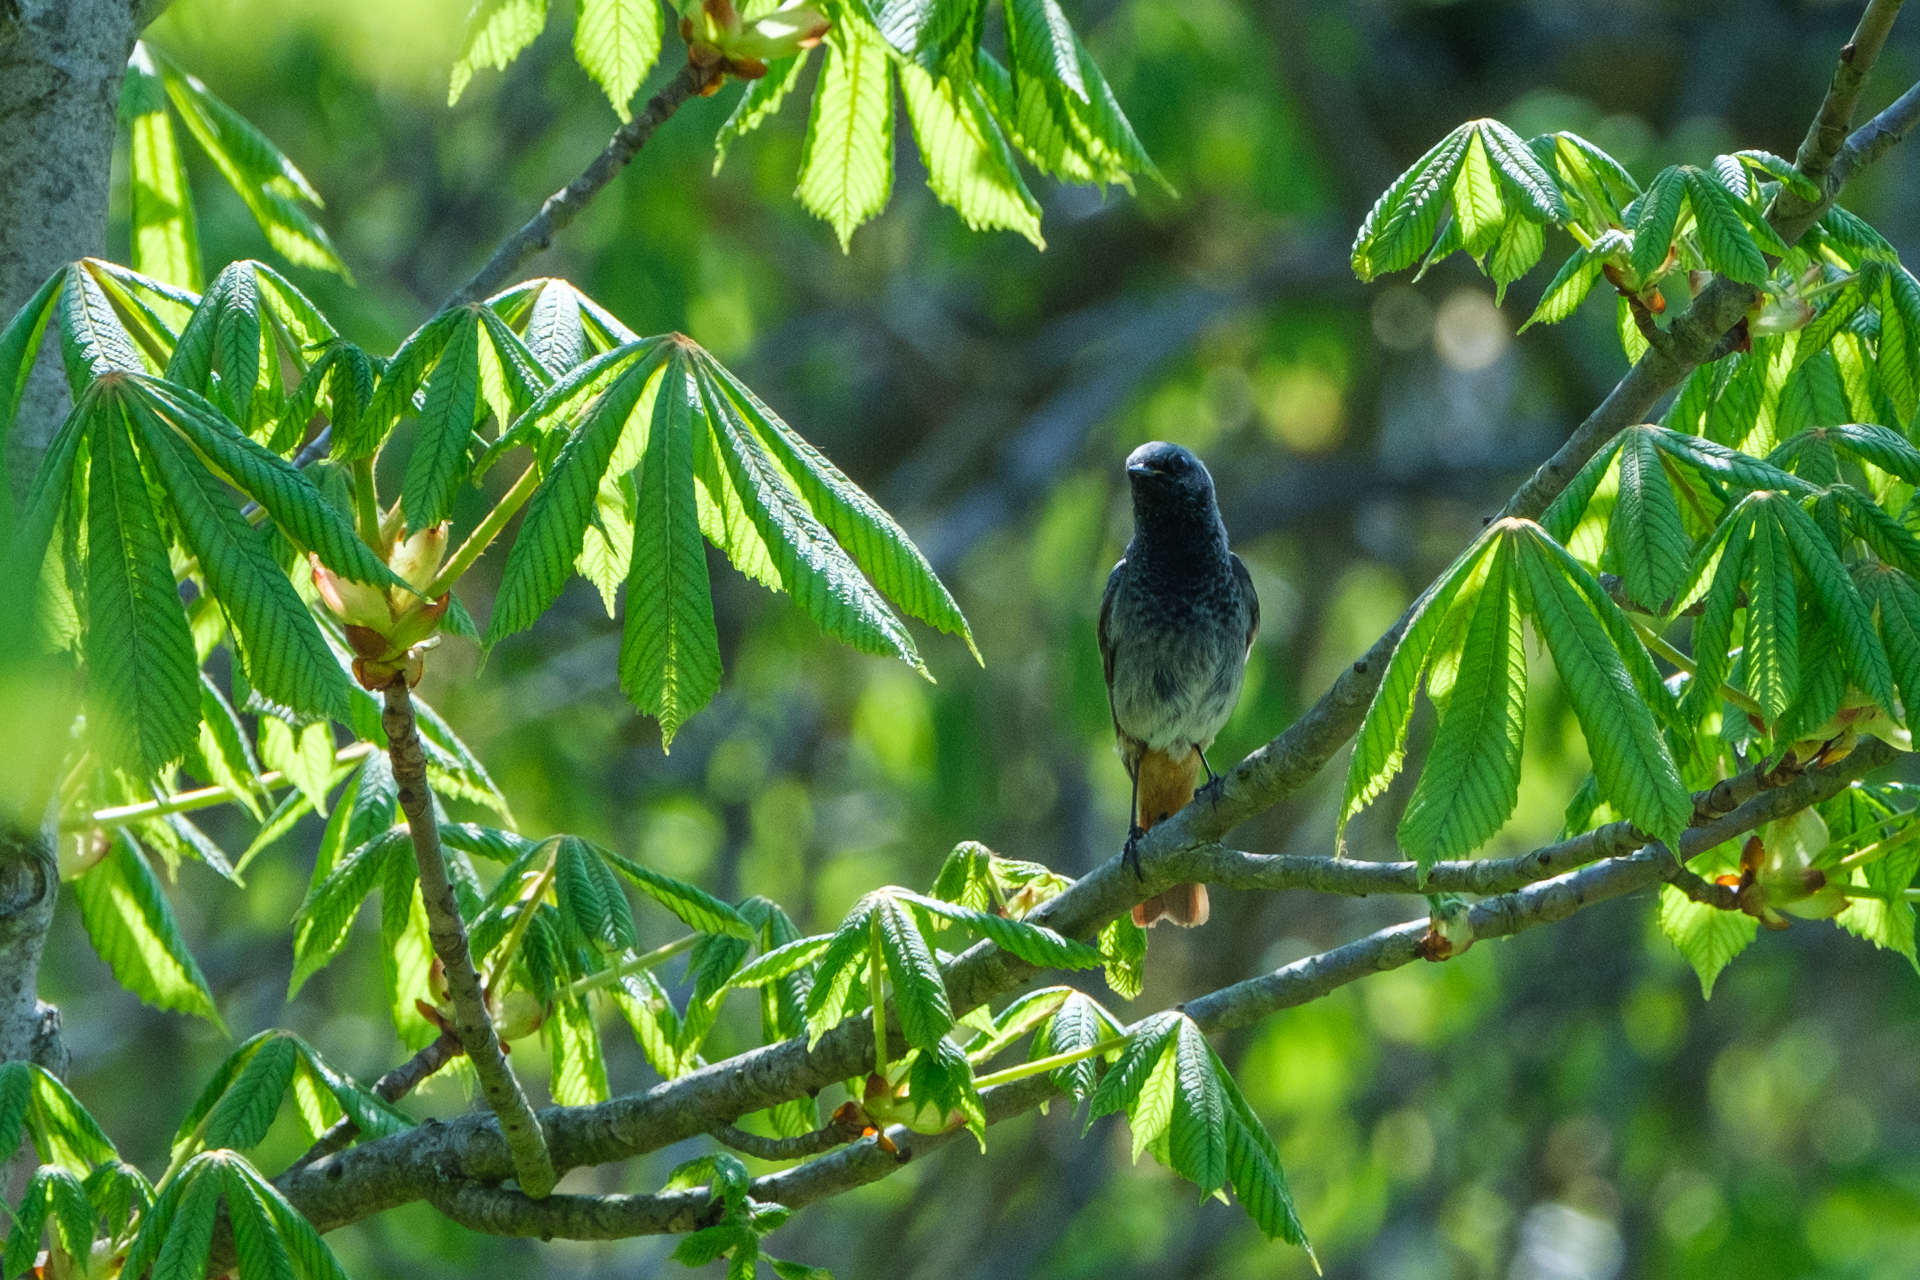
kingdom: Animalia
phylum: Chordata
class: Aves
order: Passeriformes
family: Muscicapidae
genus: Phoenicurus
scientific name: Phoenicurus ochruros
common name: Black redstart
